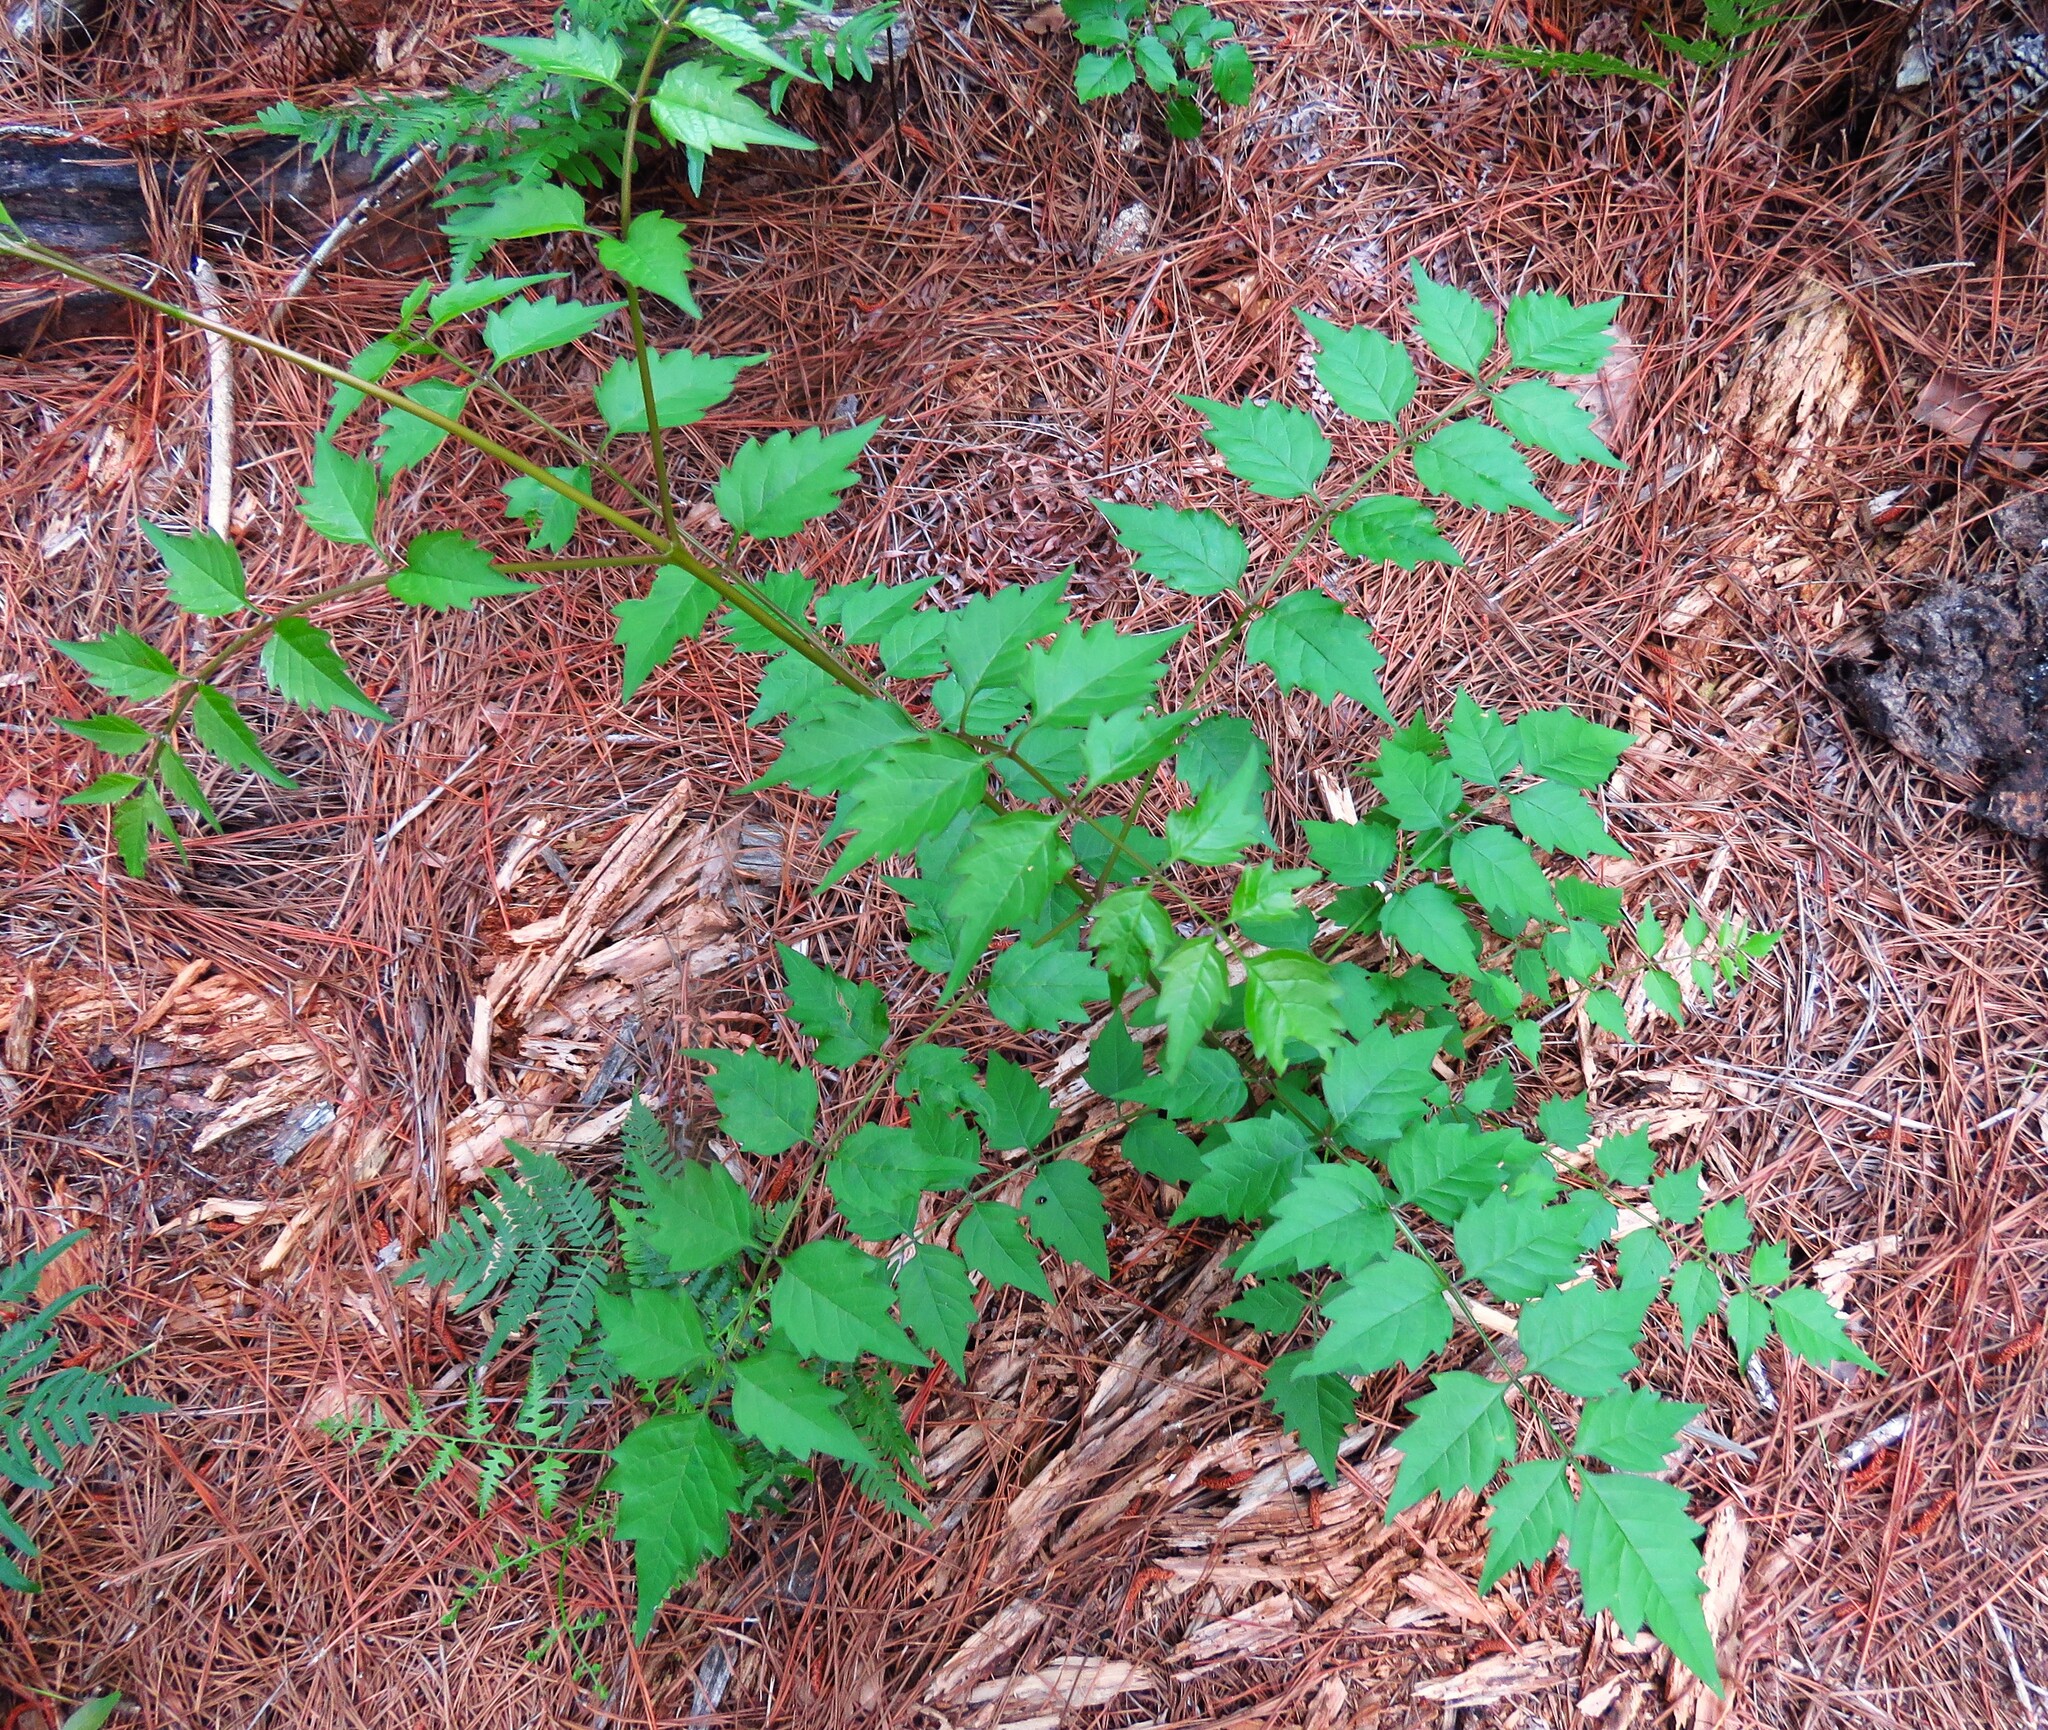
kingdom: Plantae
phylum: Tracheophyta
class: Magnoliopsida
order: Lamiales
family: Bignoniaceae
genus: Campsis
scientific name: Campsis radicans
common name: Trumpet-creeper
